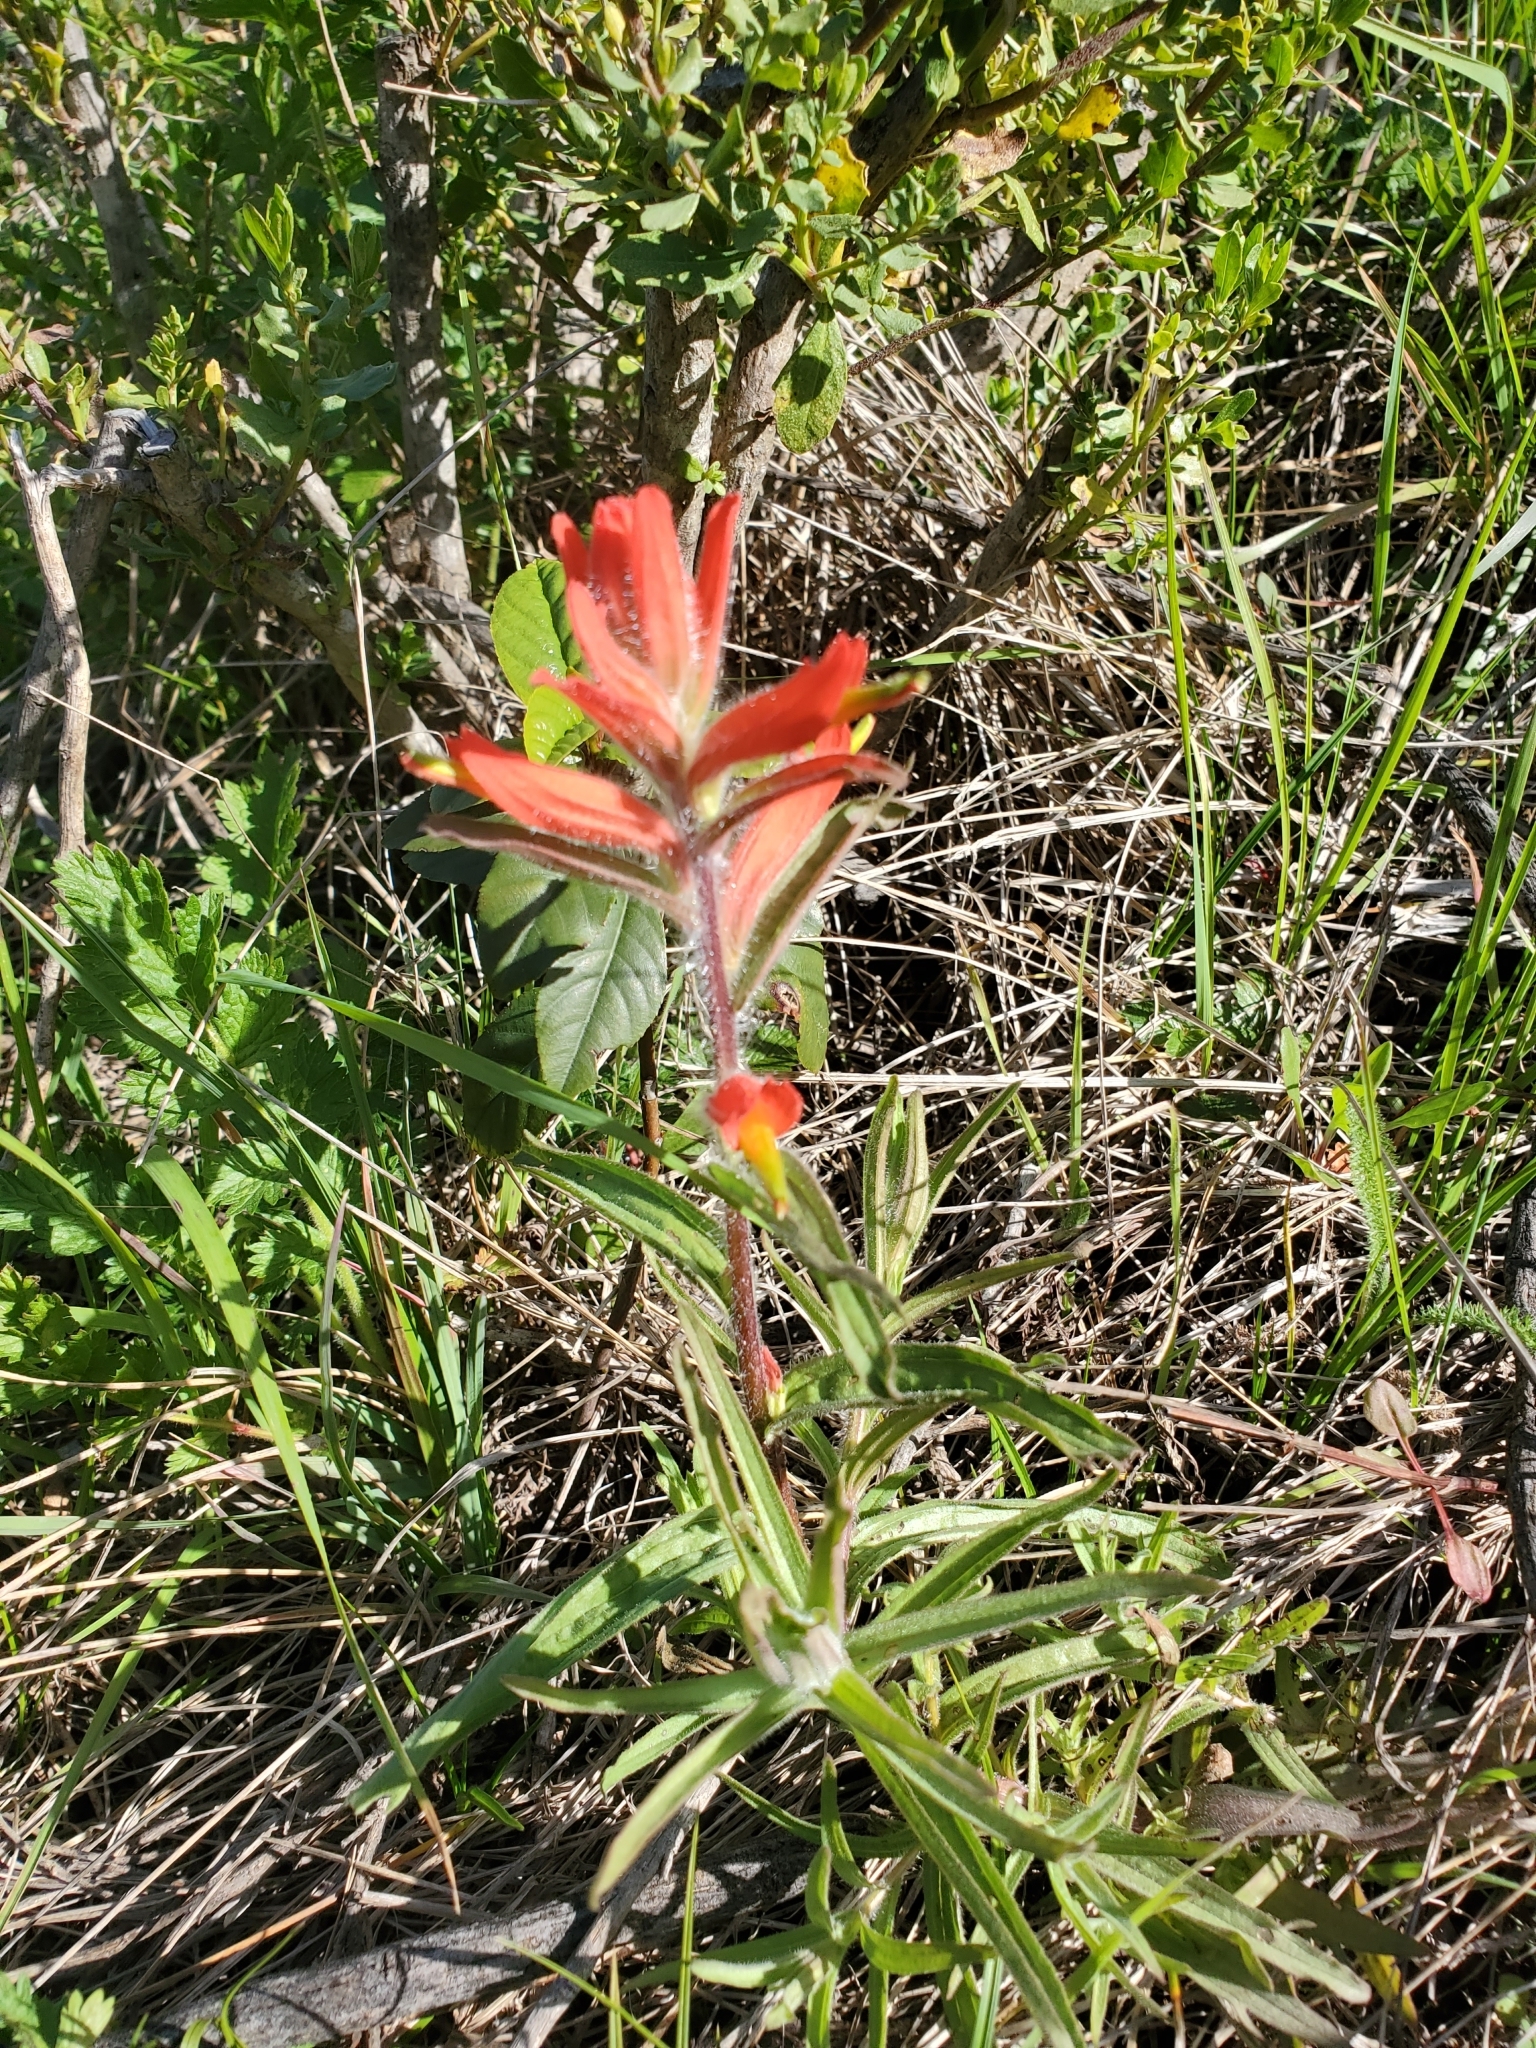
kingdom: Plantae
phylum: Tracheophyta
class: Magnoliopsida
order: Lamiales
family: Orobanchaceae
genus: Castilleja
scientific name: Castilleja subinclusa
